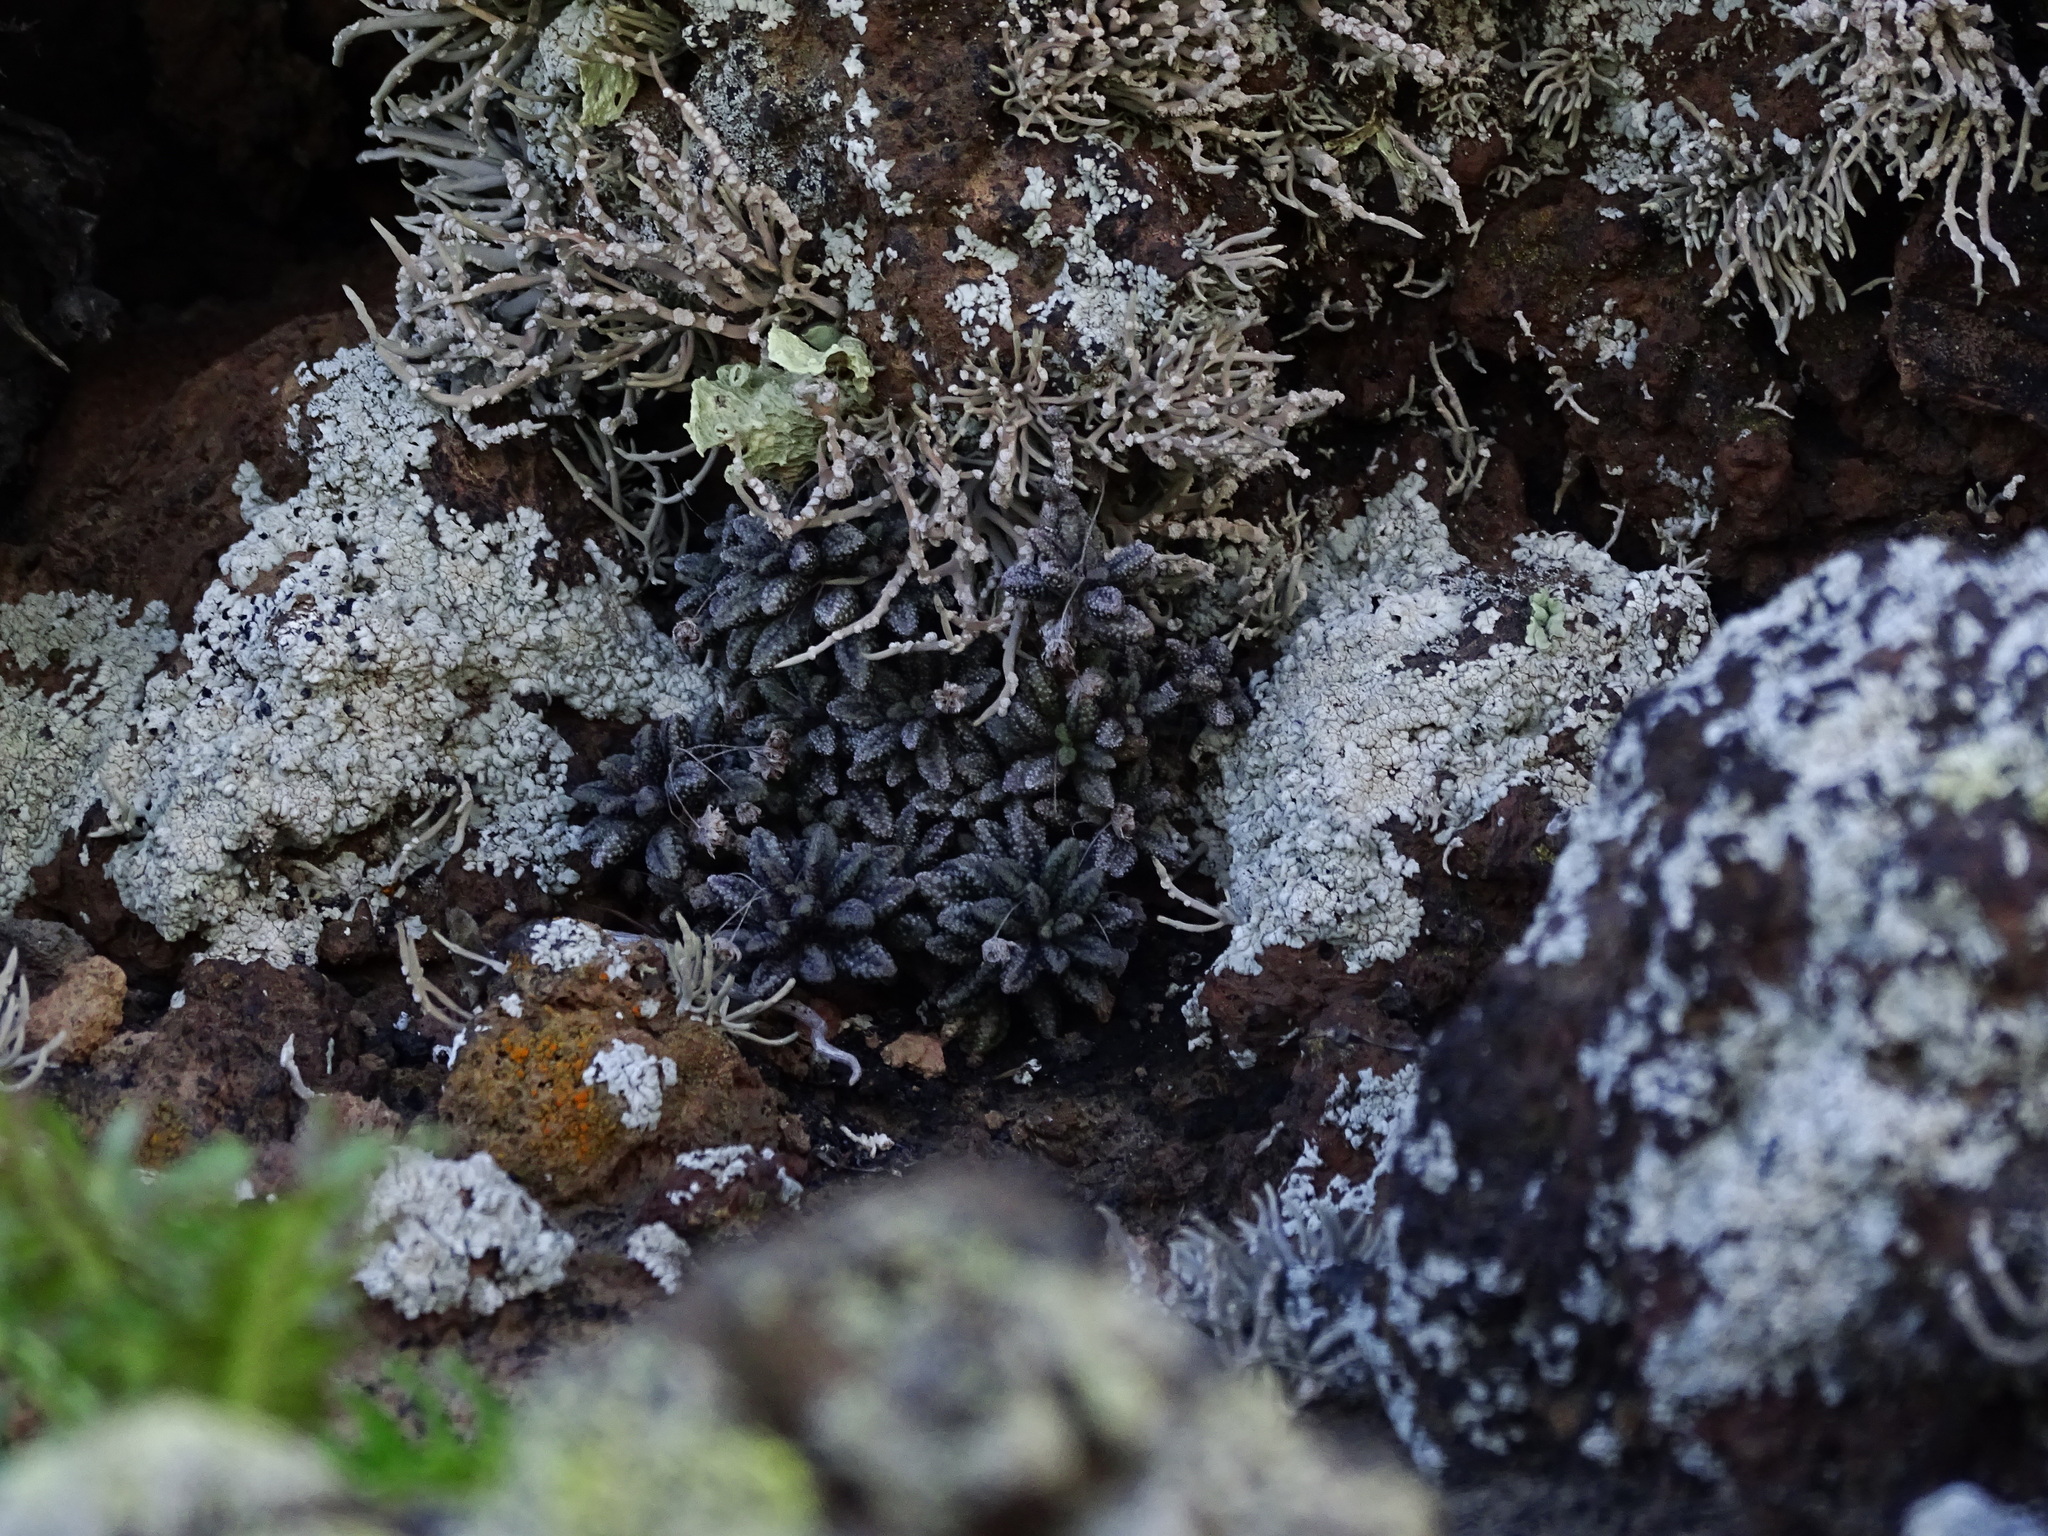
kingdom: Plantae
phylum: Tracheophyta
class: Magnoliopsida
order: Saxifragales
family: Crassulaceae
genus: Monanthes
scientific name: Monanthes subrosulata
